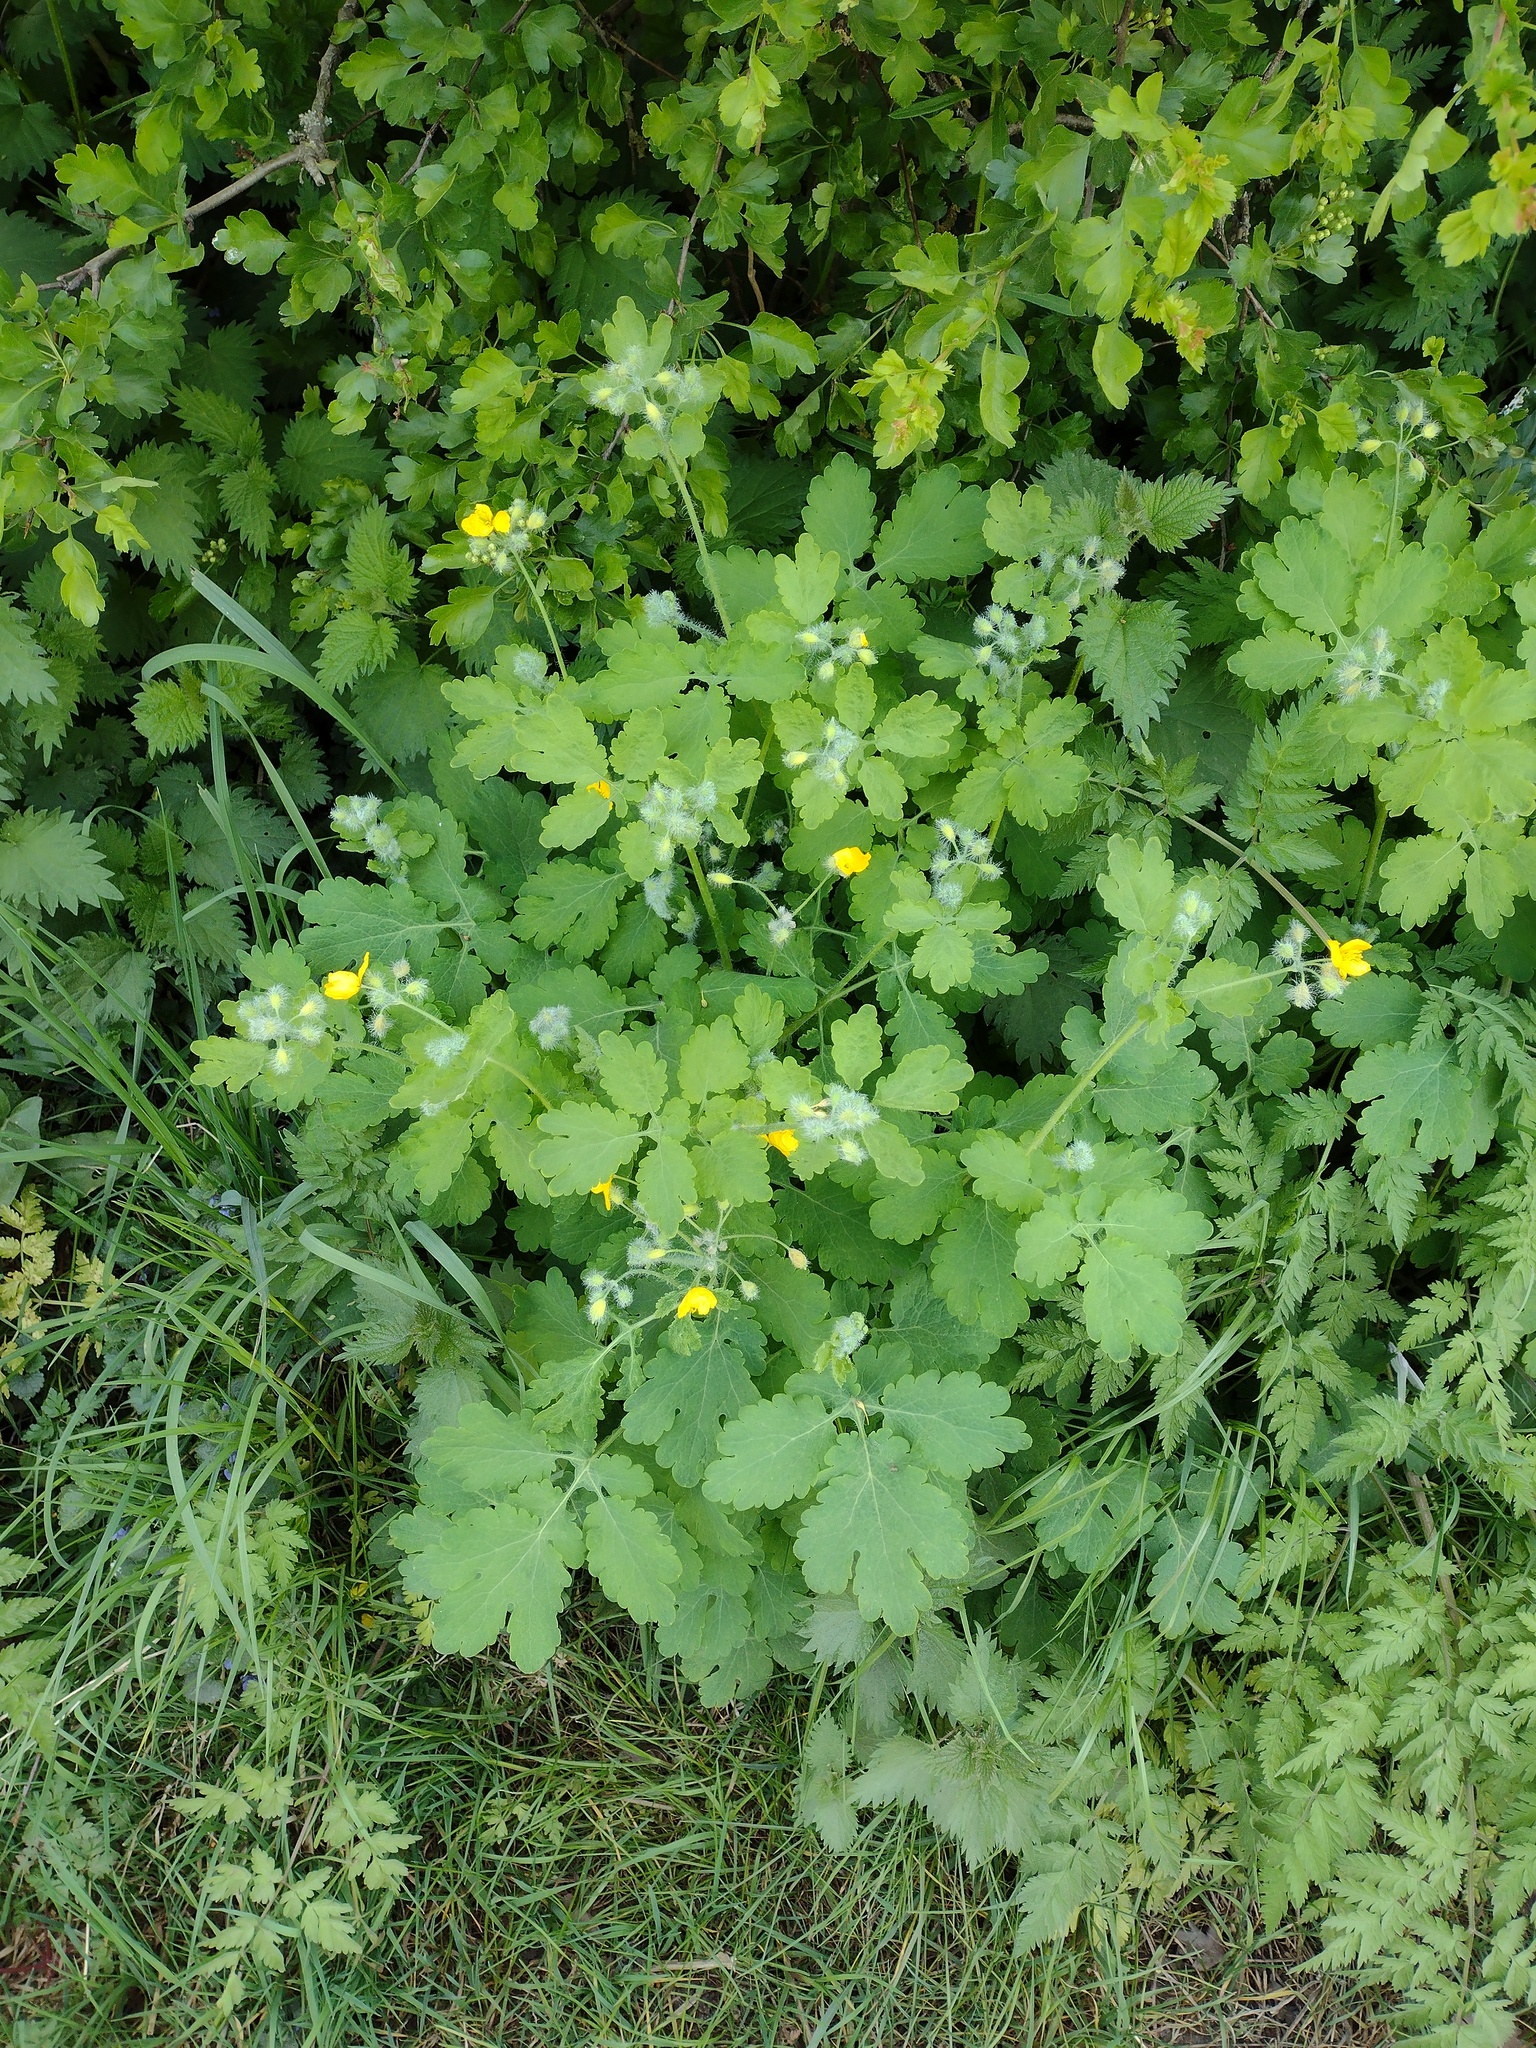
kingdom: Plantae
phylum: Tracheophyta
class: Magnoliopsida
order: Ranunculales
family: Papaveraceae
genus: Chelidonium
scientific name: Chelidonium majus
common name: Greater celandine
